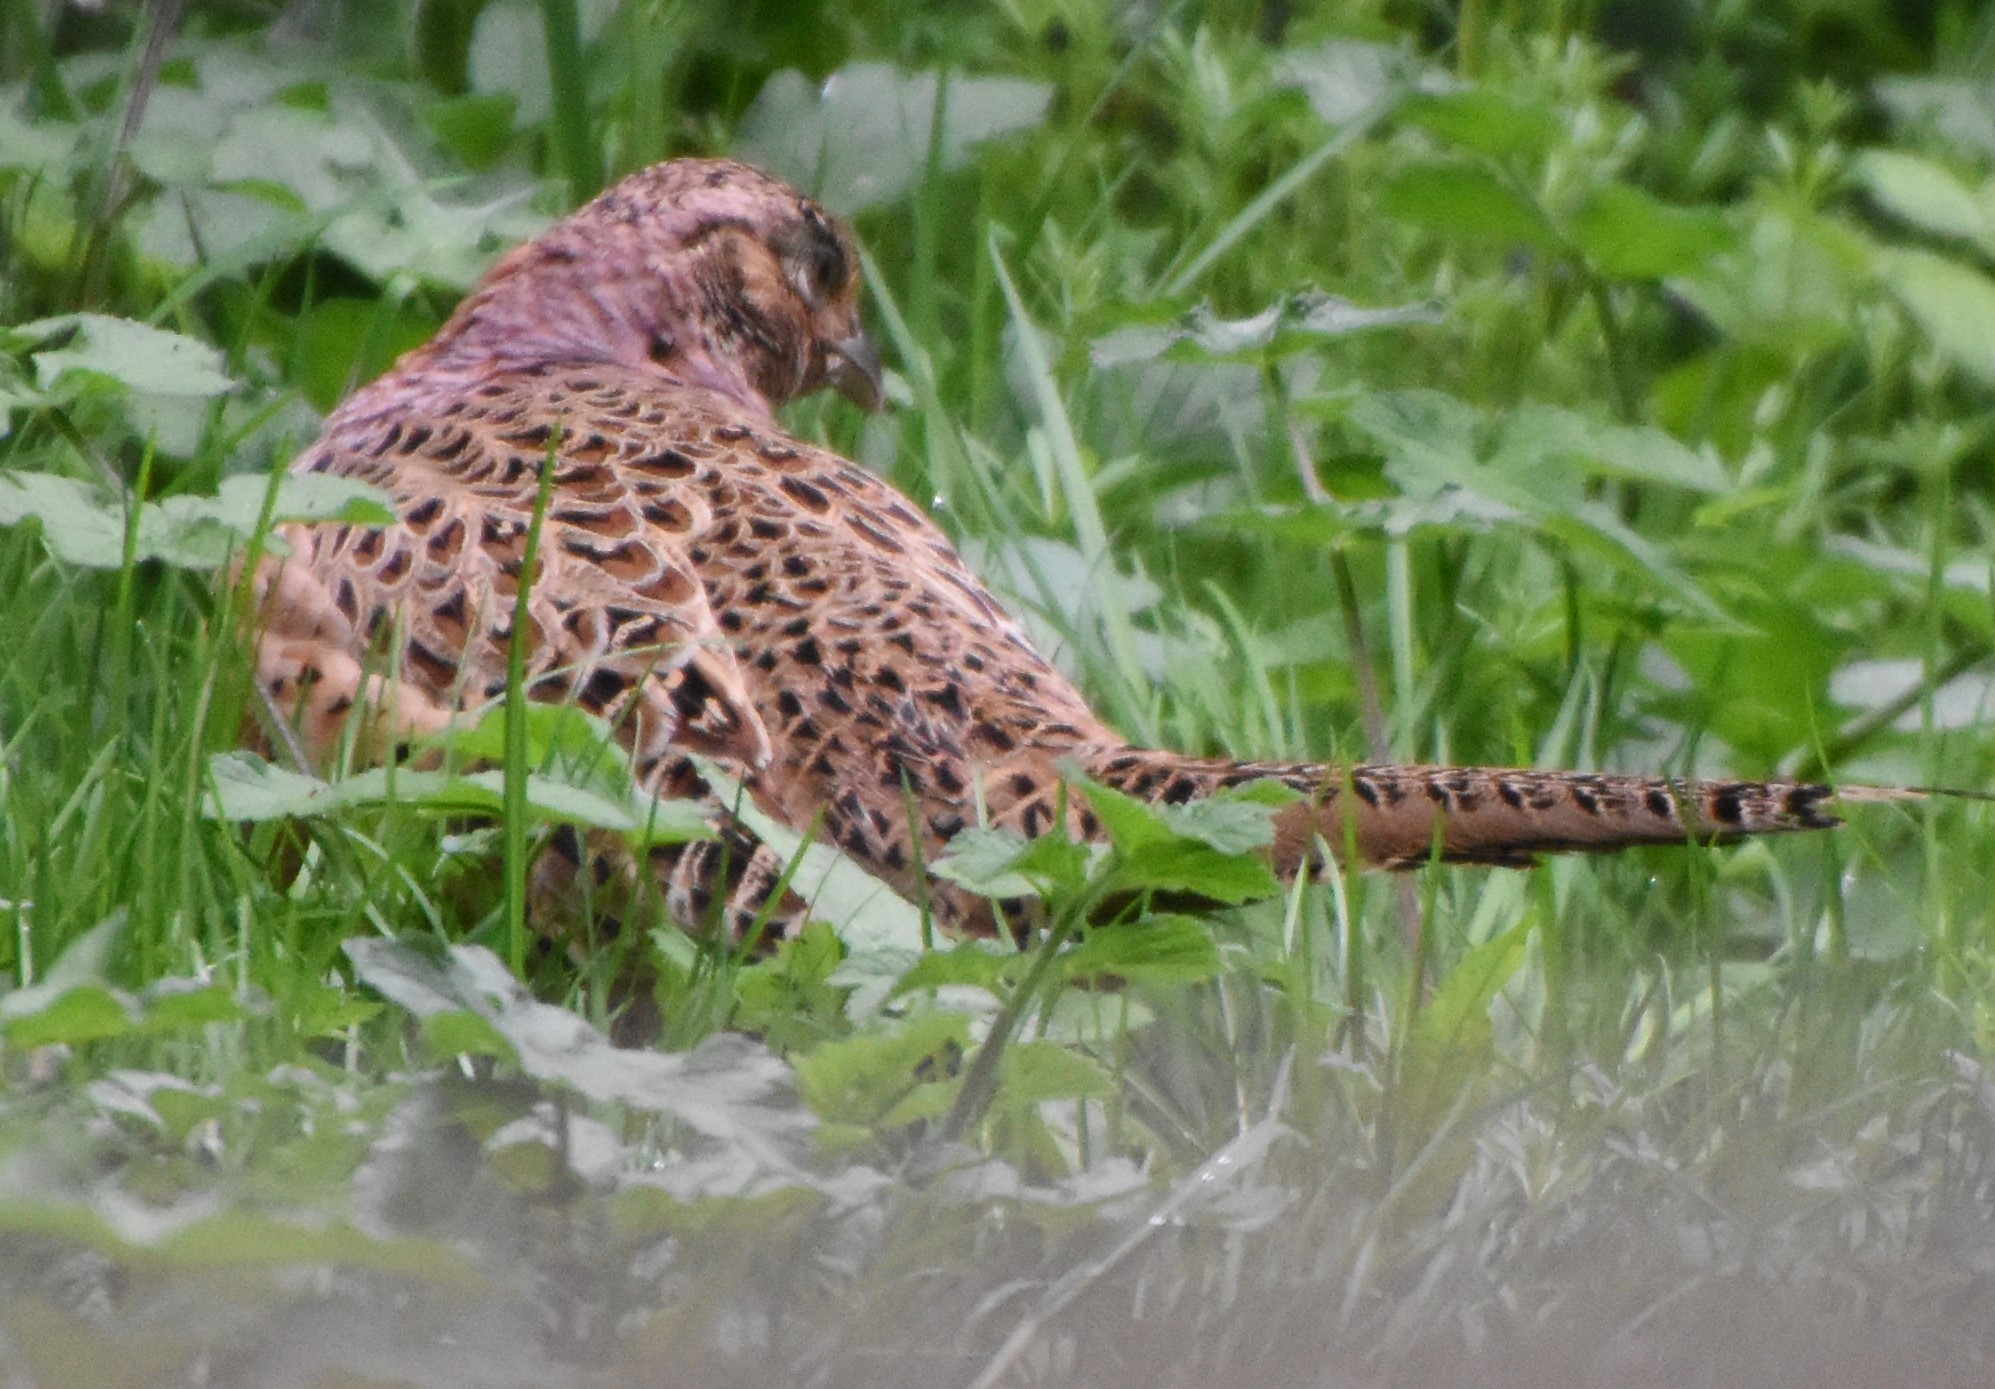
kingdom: Animalia
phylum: Chordata
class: Aves
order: Galliformes
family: Phasianidae
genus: Phasianus
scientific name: Phasianus colchicus
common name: Common pheasant
